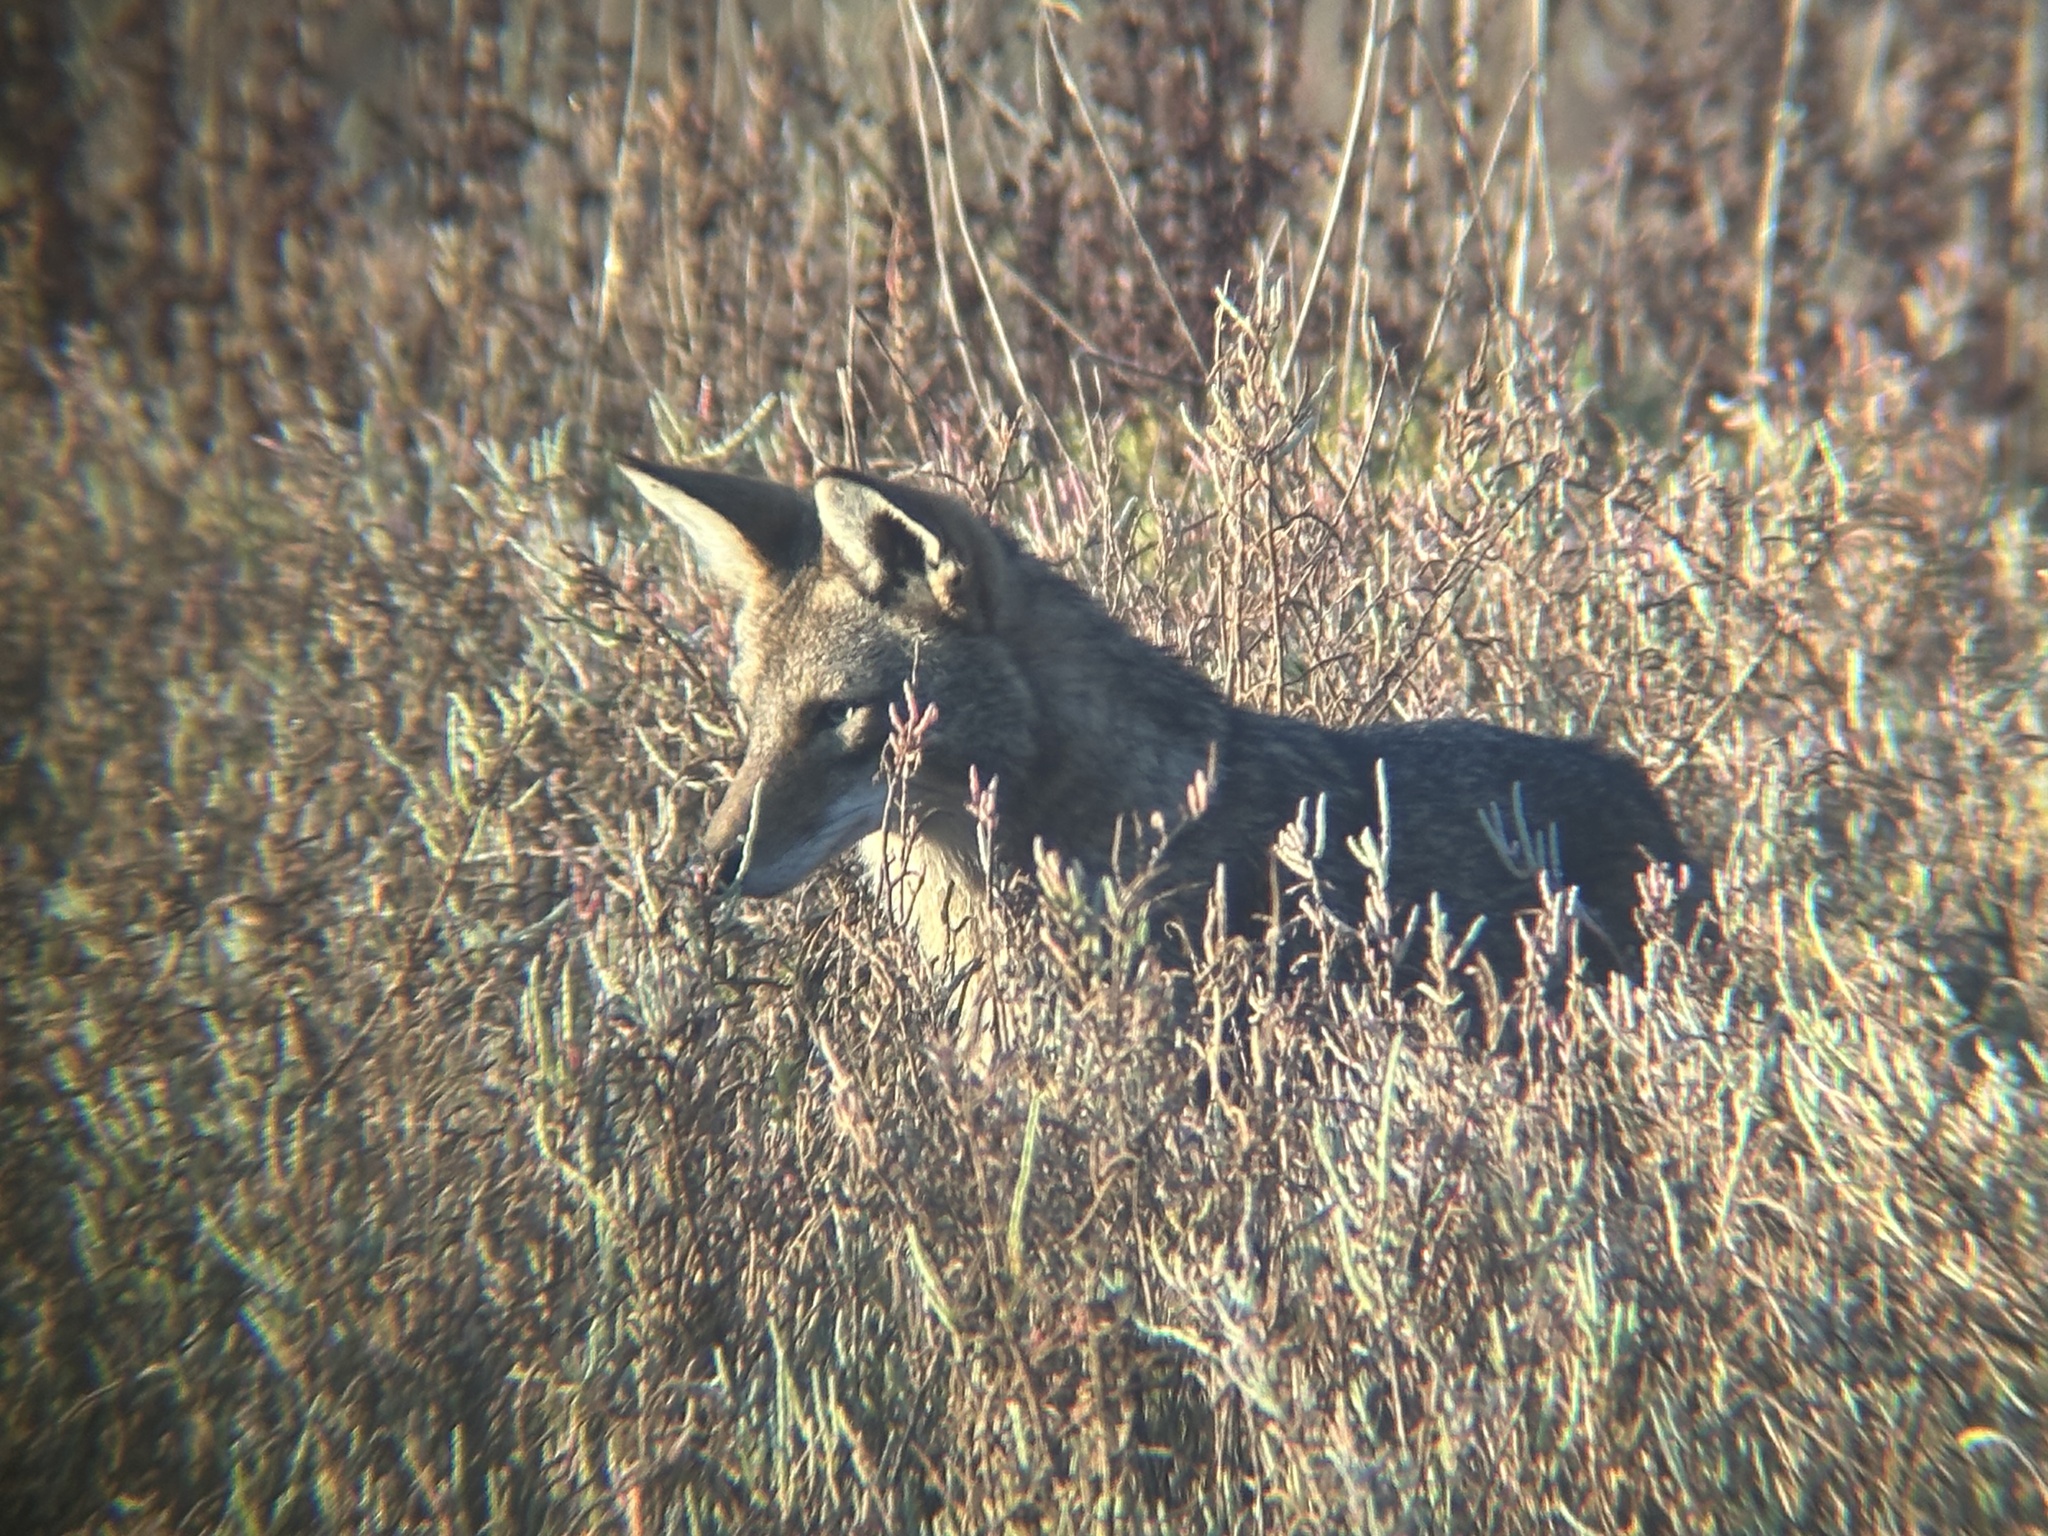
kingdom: Animalia
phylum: Chordata
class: Mammalia
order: Carnivora
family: Canidae
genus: Canis
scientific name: Canis latrans
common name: Coyote
